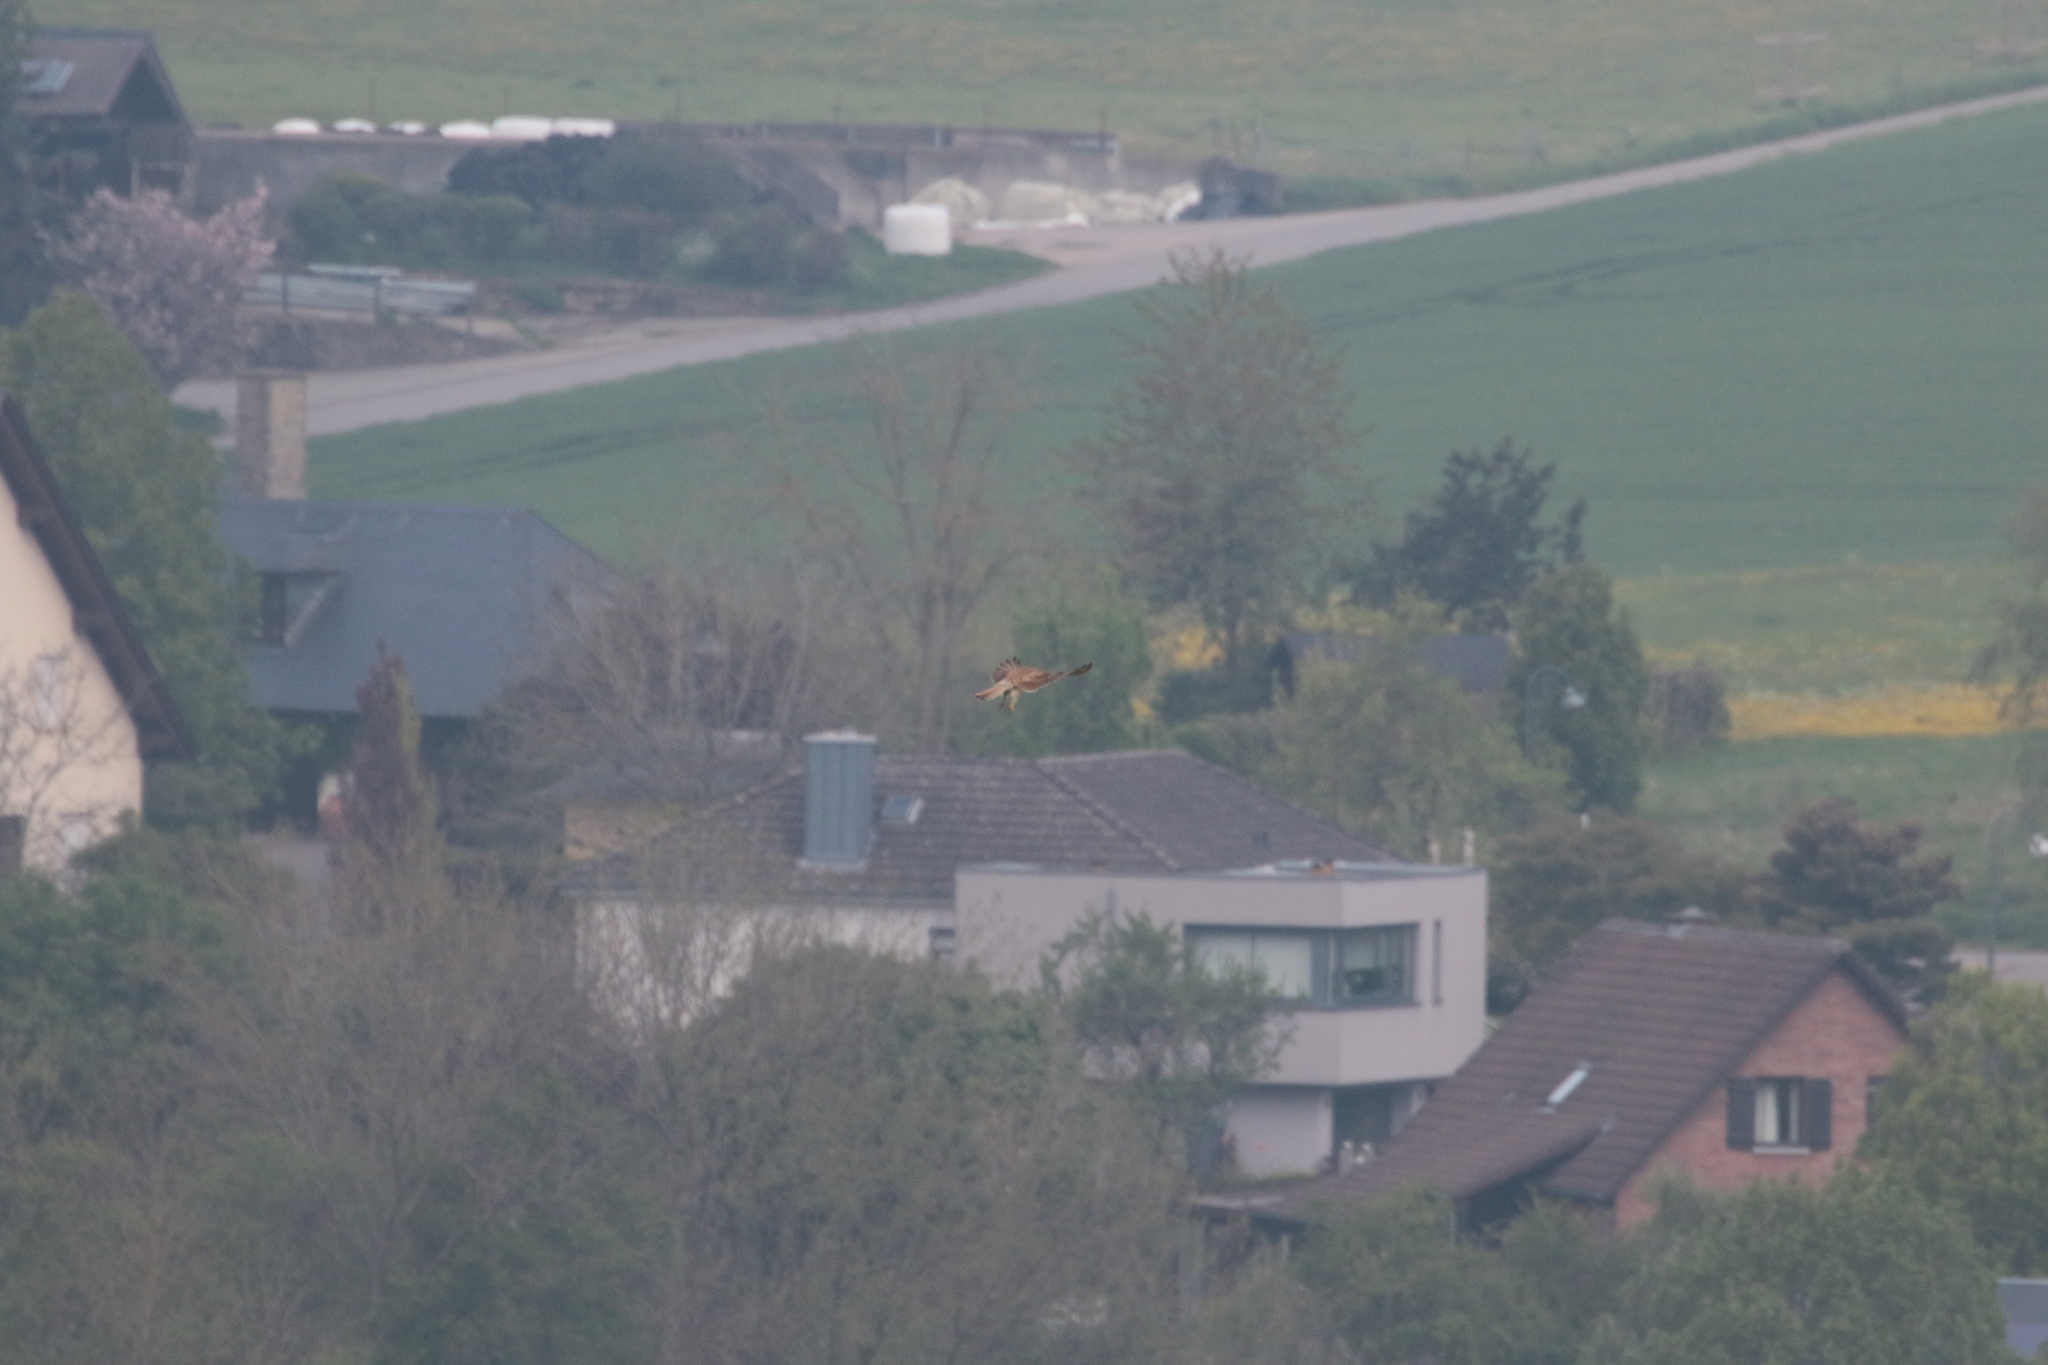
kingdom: Animalia
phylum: Chordata
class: Aves
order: Falconiformes
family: Falconidae
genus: Falco
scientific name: Falco tinnunculus
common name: Common kestrel
